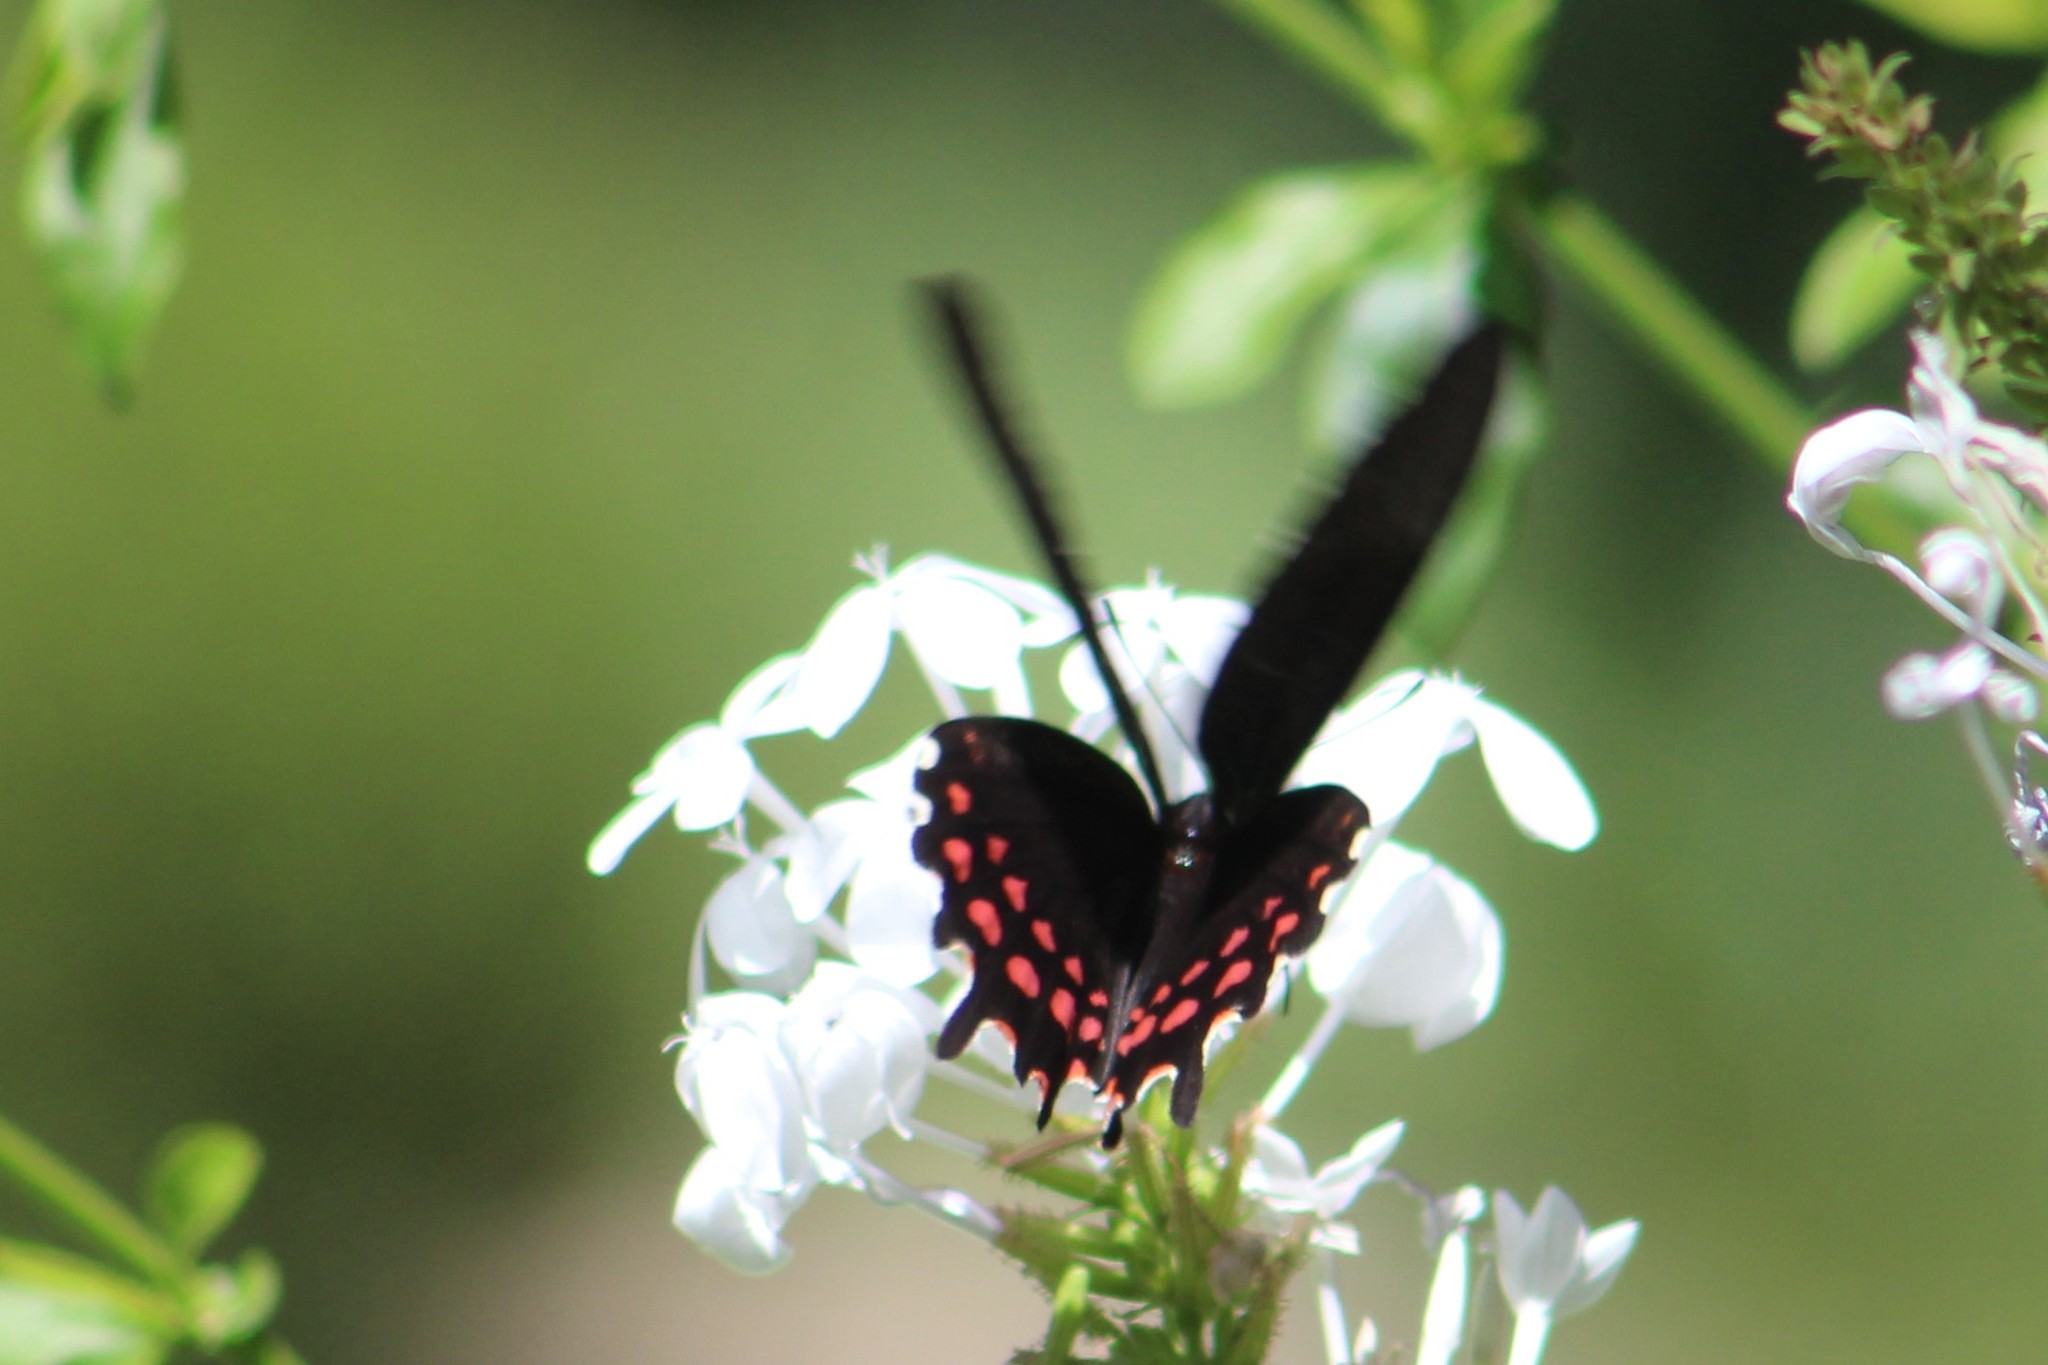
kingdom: Animalia
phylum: Arthropoda
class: Insecta
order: Lepidoptera
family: Papilionidae
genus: Heraclides
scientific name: Heraclides rogeri
